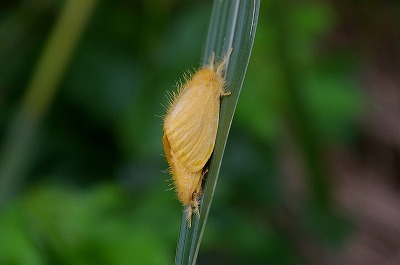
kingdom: Animalia
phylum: Arthropoda
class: Insecta
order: Lepidoptera
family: Erebidae
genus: Euproctis
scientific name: Euproctis taiwana
